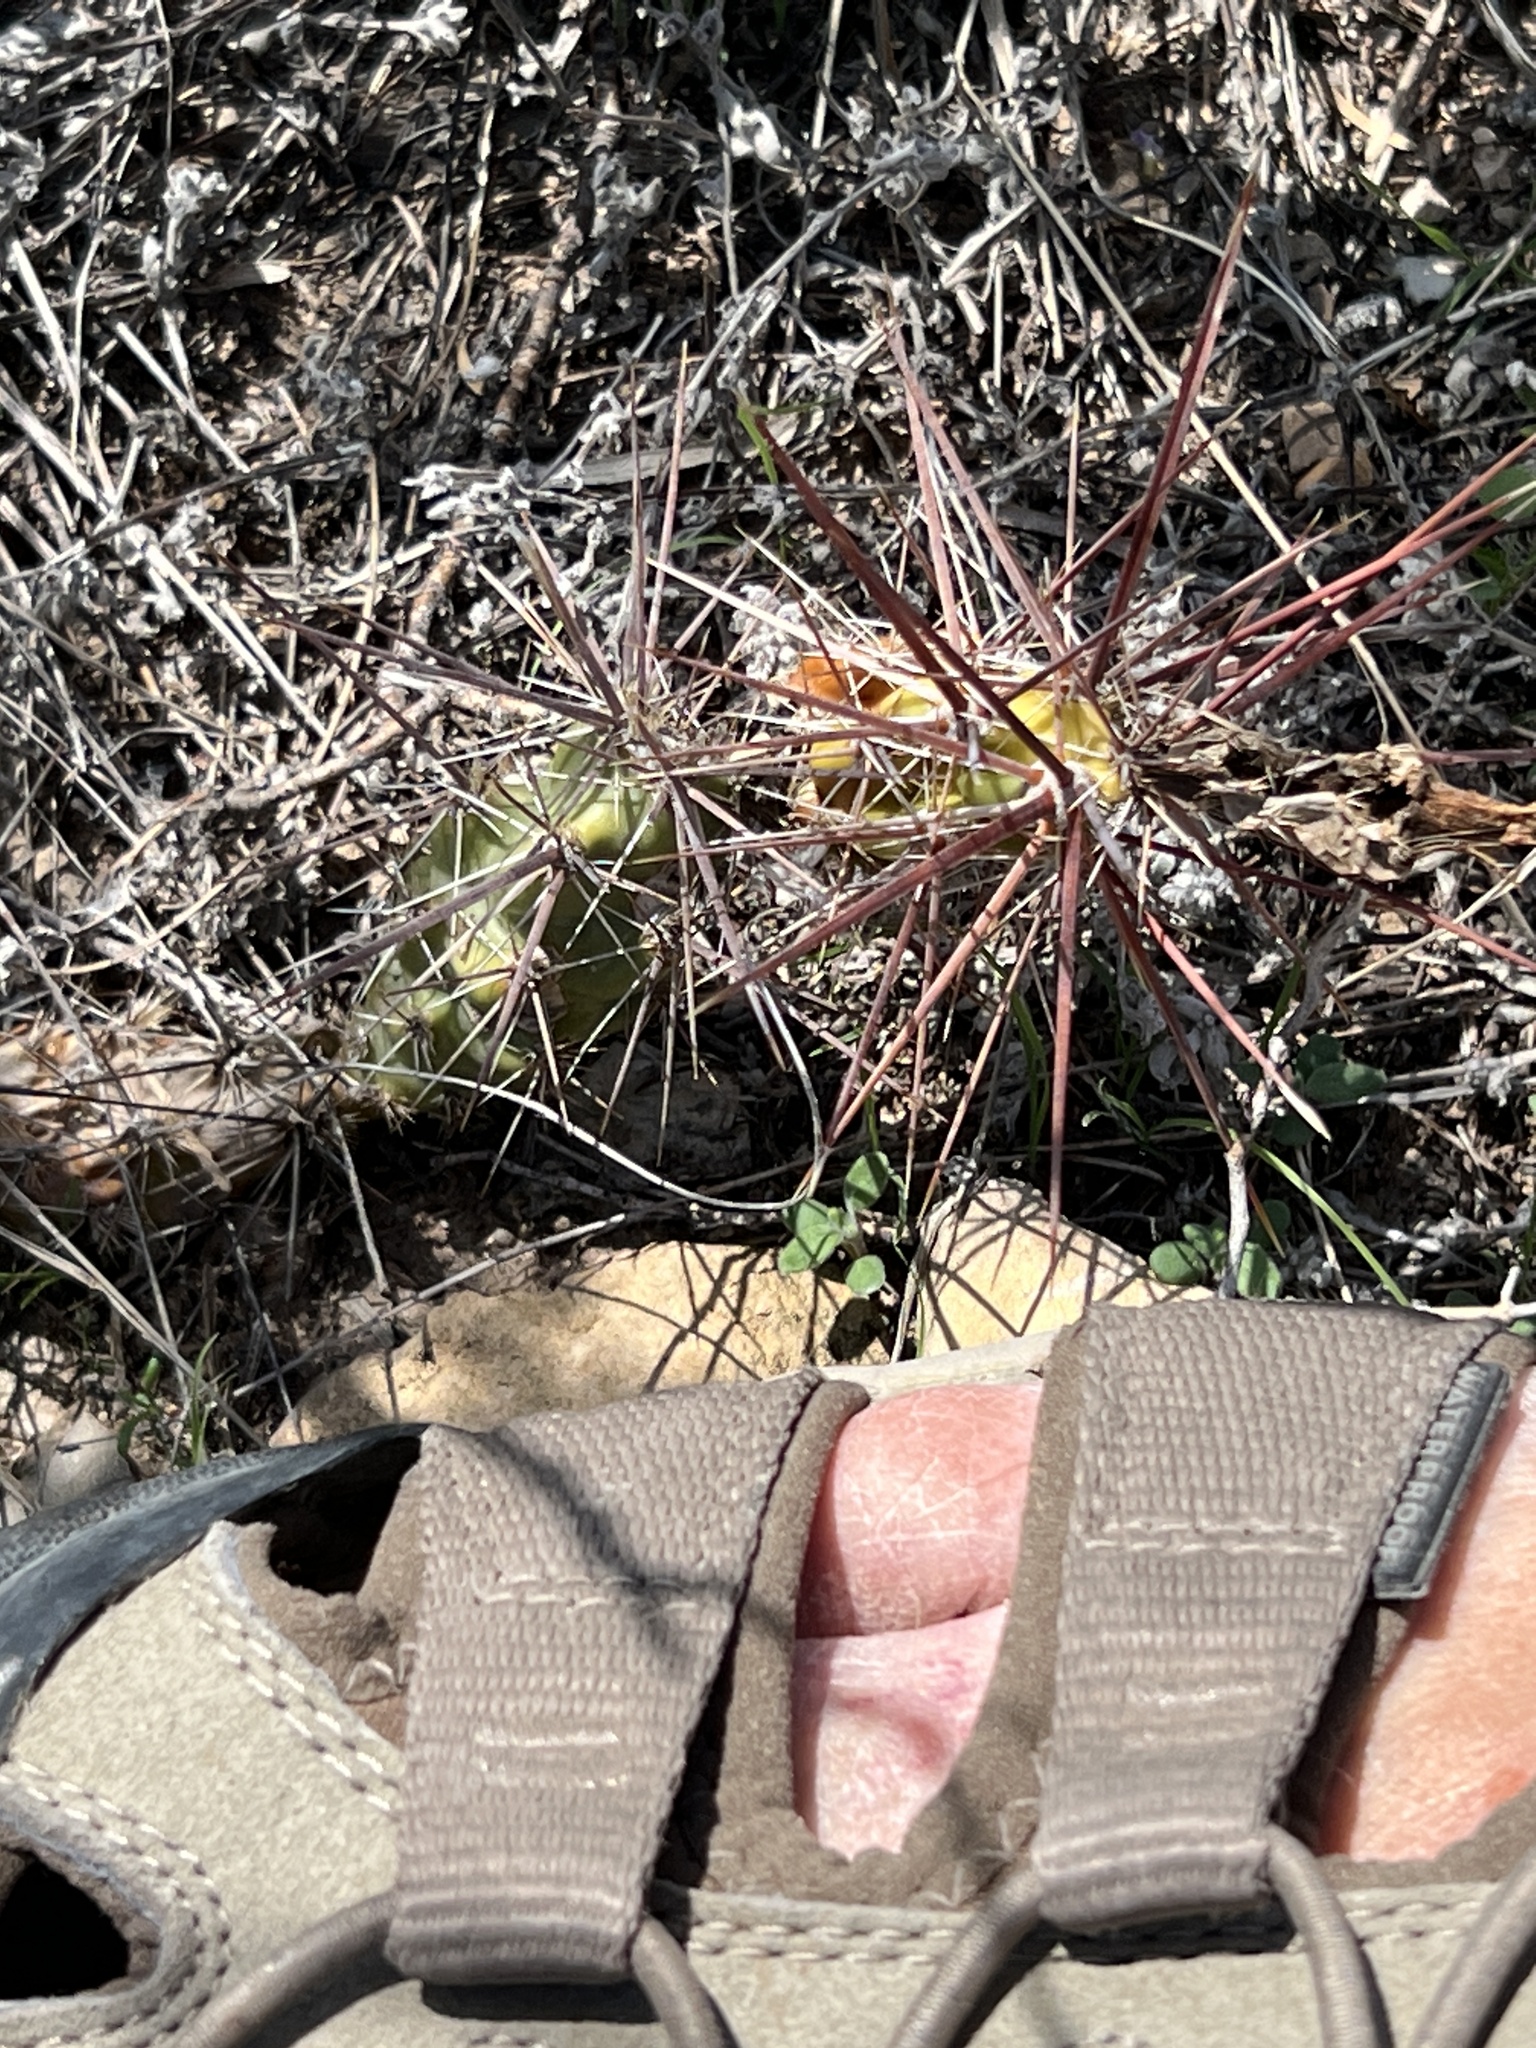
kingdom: Plantae
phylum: Tracheophyta
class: Magnoliopsida
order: Caryophyllales
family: Cactaceae
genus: Grusonia
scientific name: Grusonia schottii
